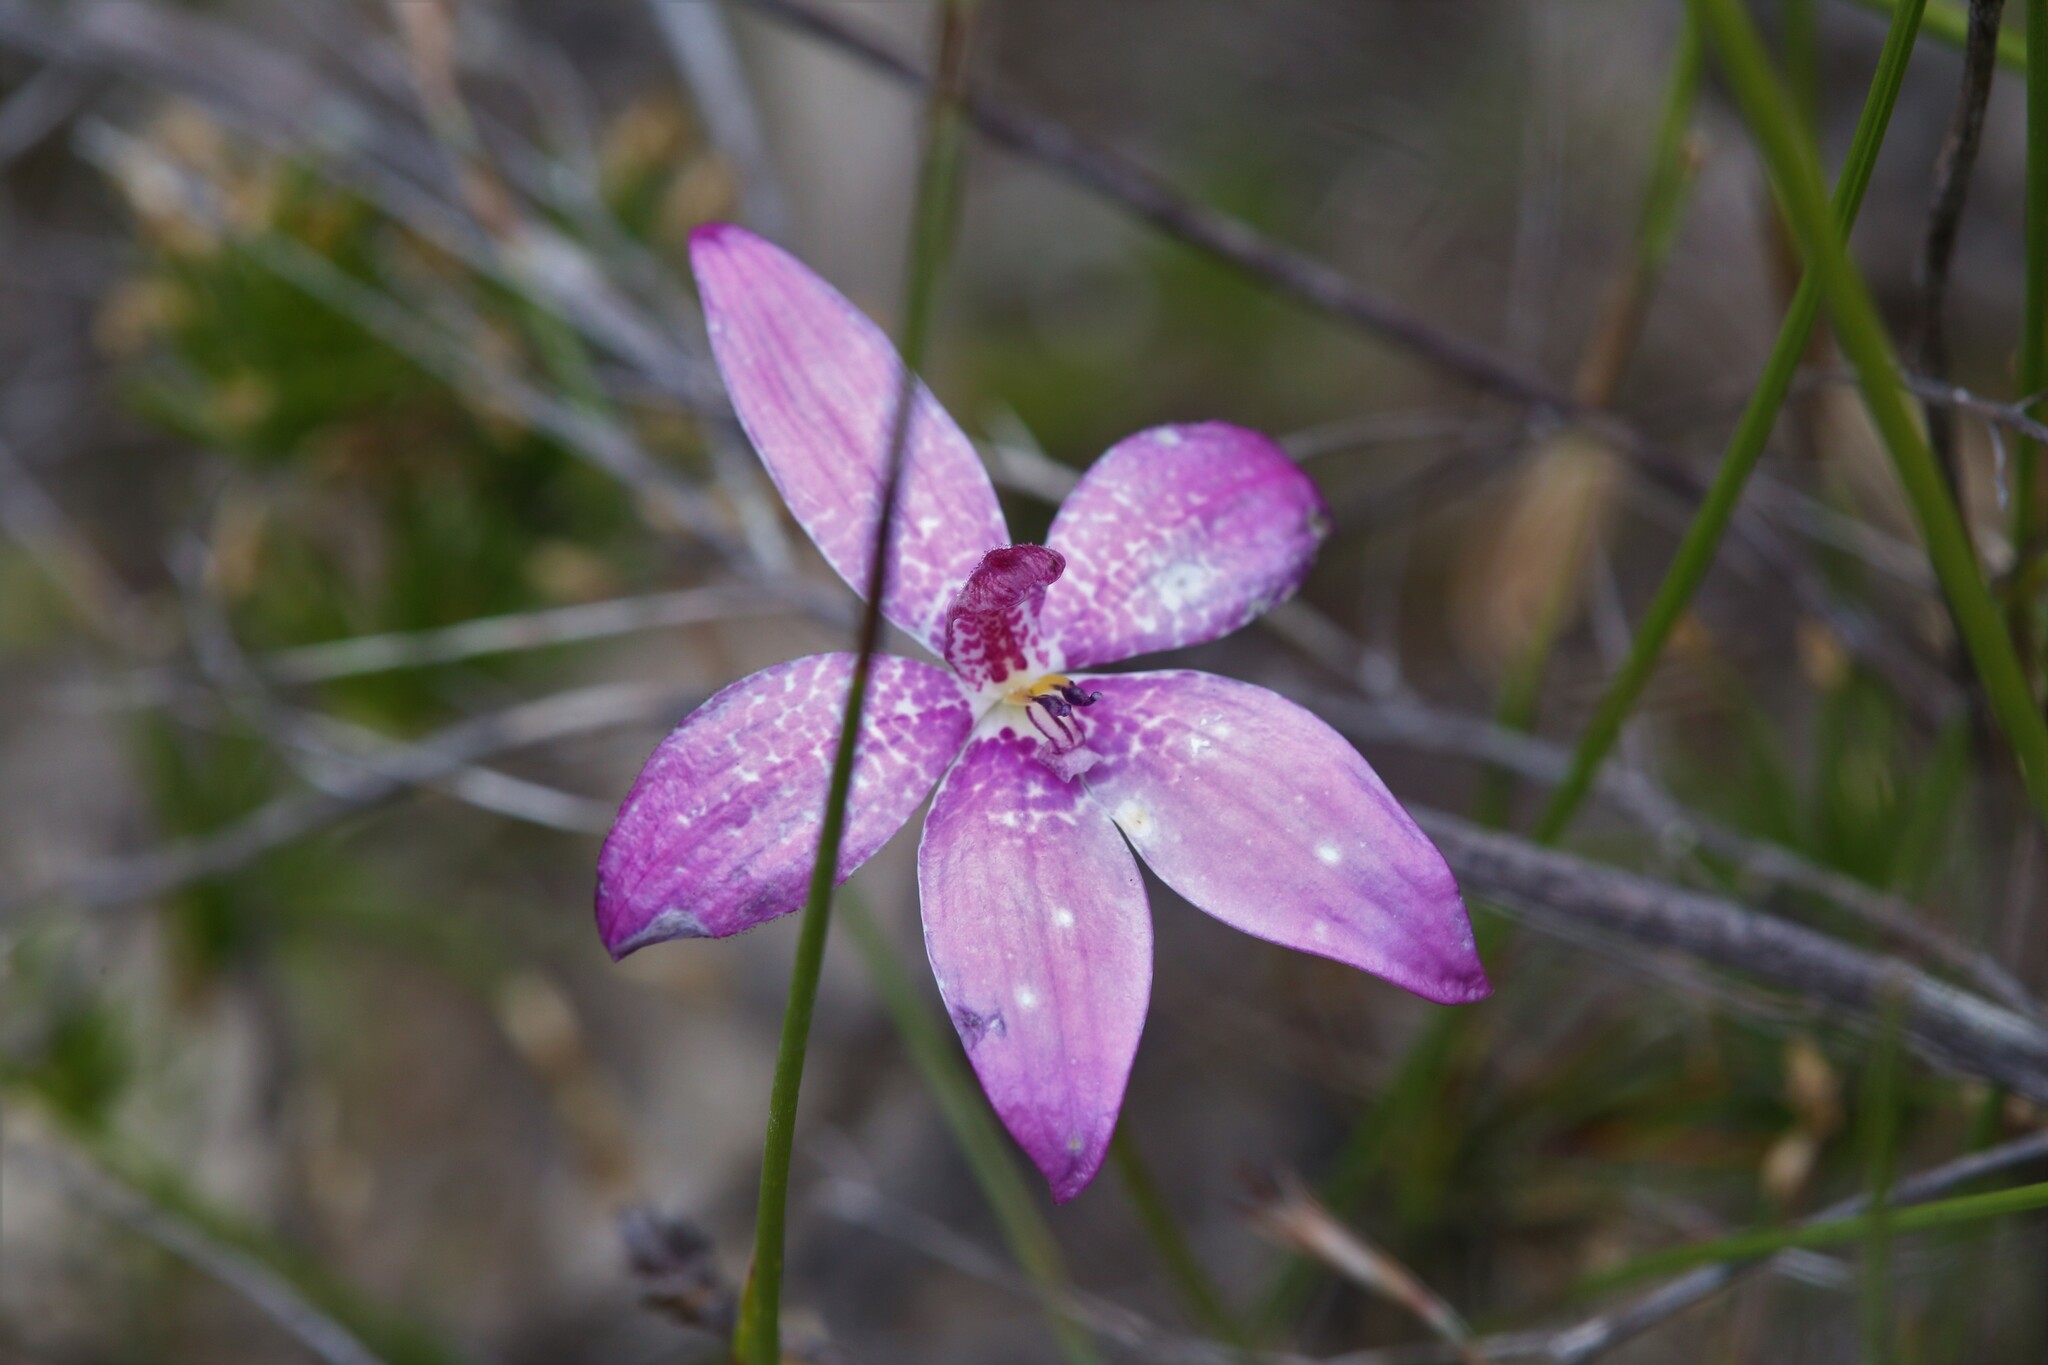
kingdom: Plantae
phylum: Tracheophyta
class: Liliopsida
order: Asparagales
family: Orchidaceae
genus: Caladenia
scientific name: Caladenia emarginata
